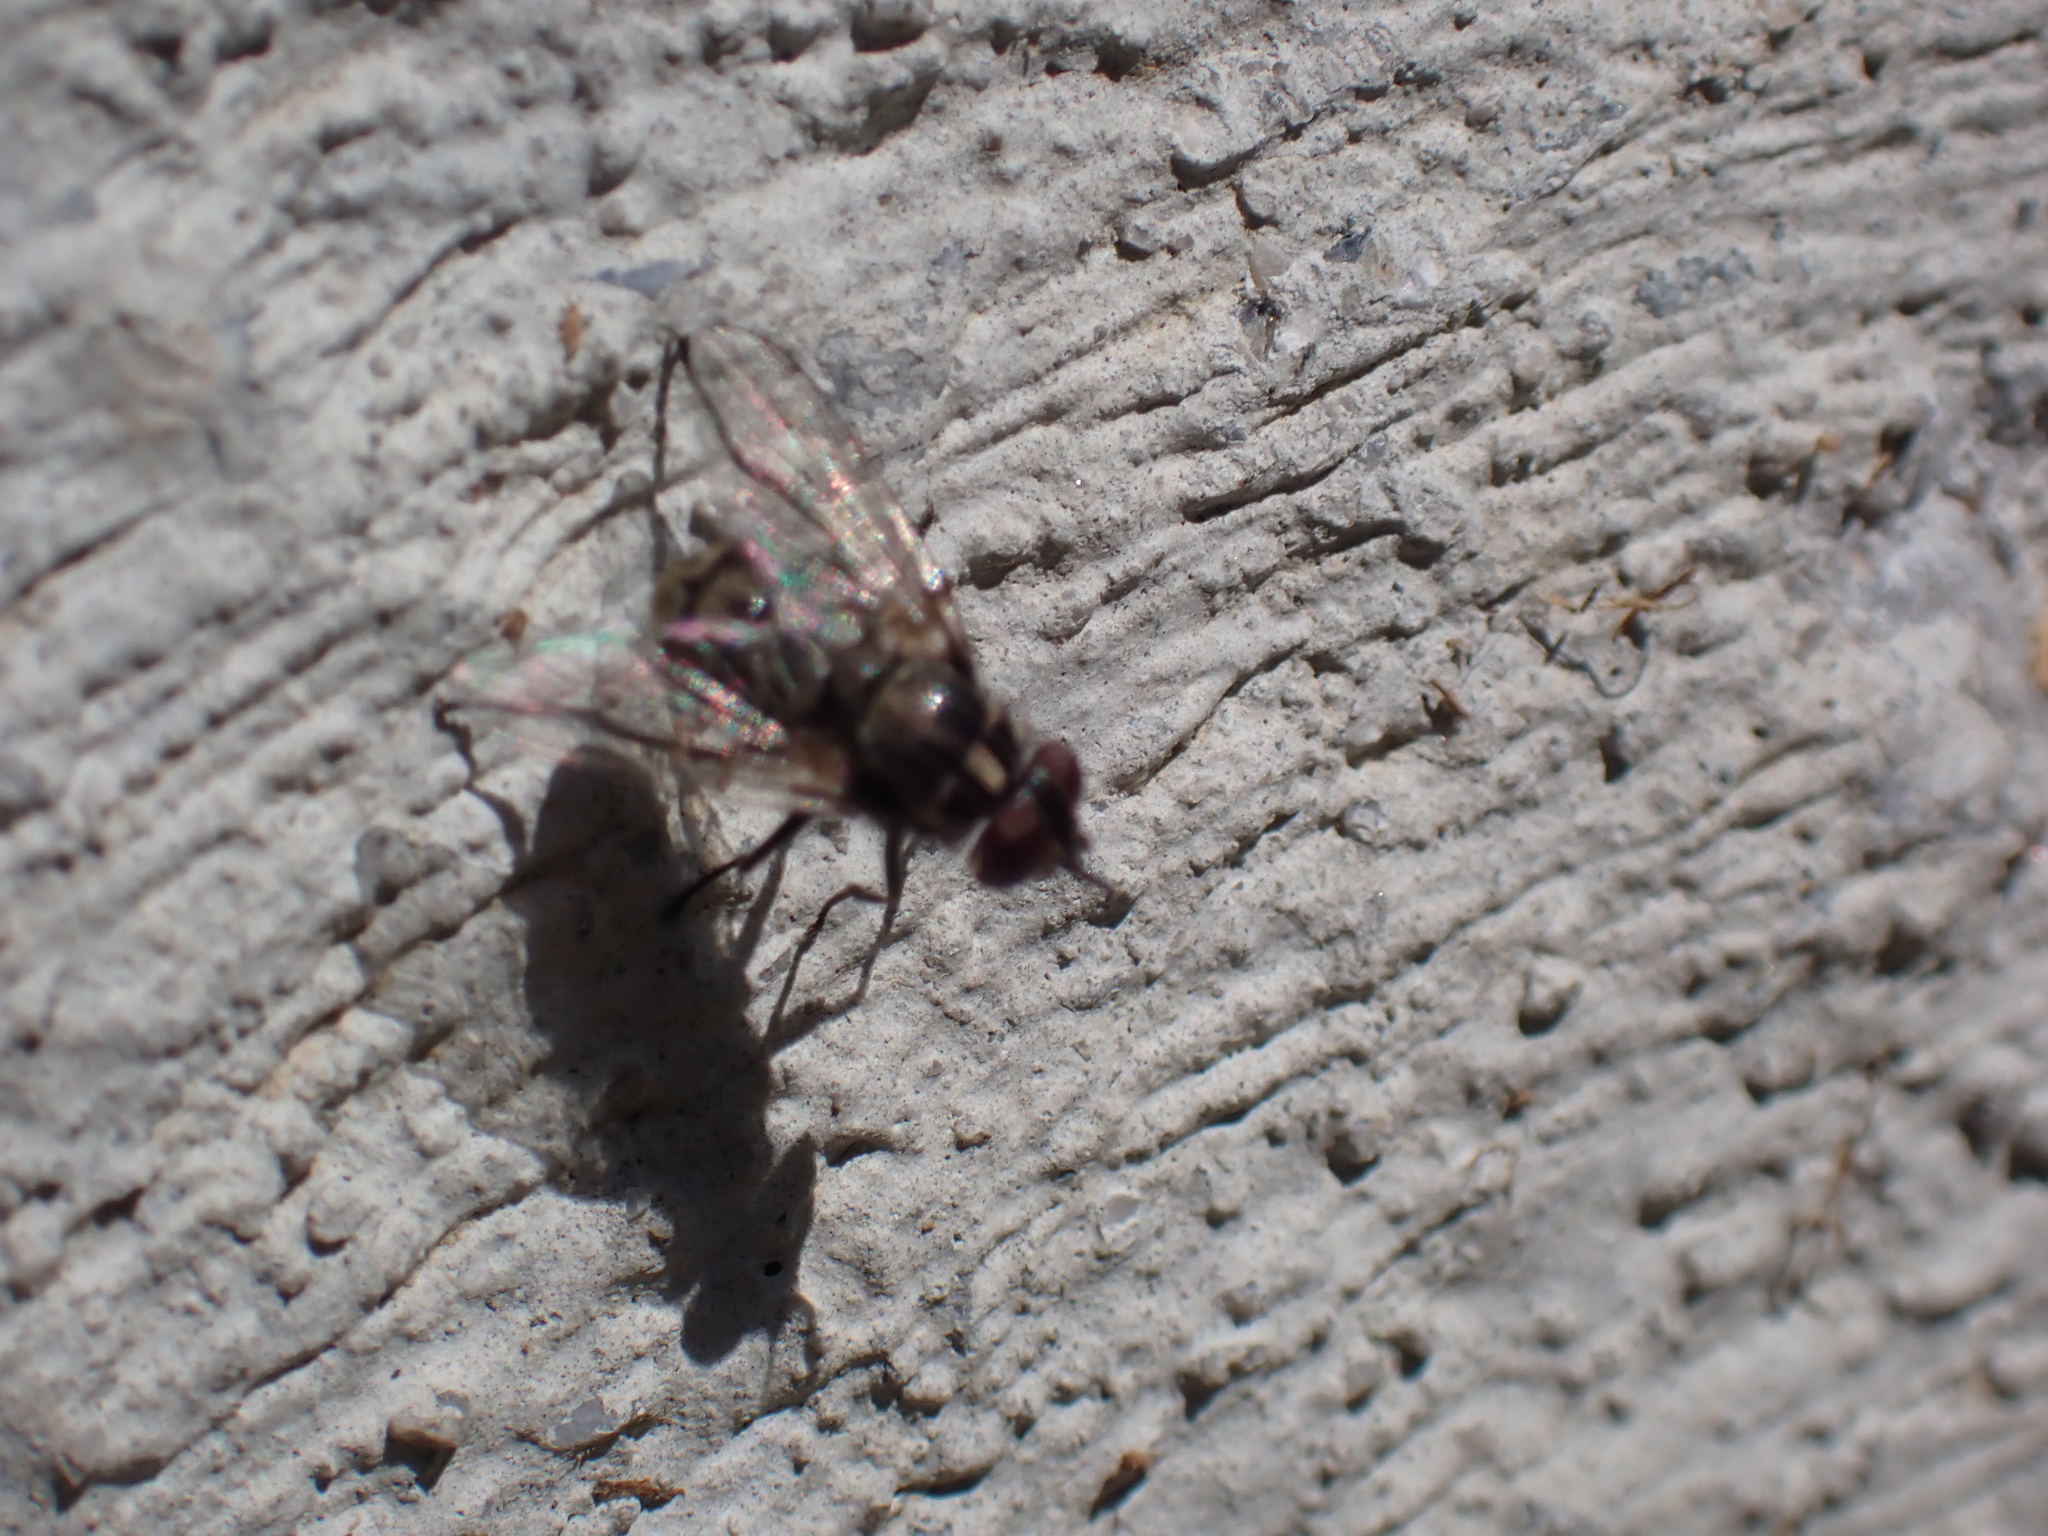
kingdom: Animalia
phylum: Arthropoda
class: Insecta
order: Diptera
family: Muscidae
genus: Stomoxys
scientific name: Stomoxys calcitrans
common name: Stable fly
